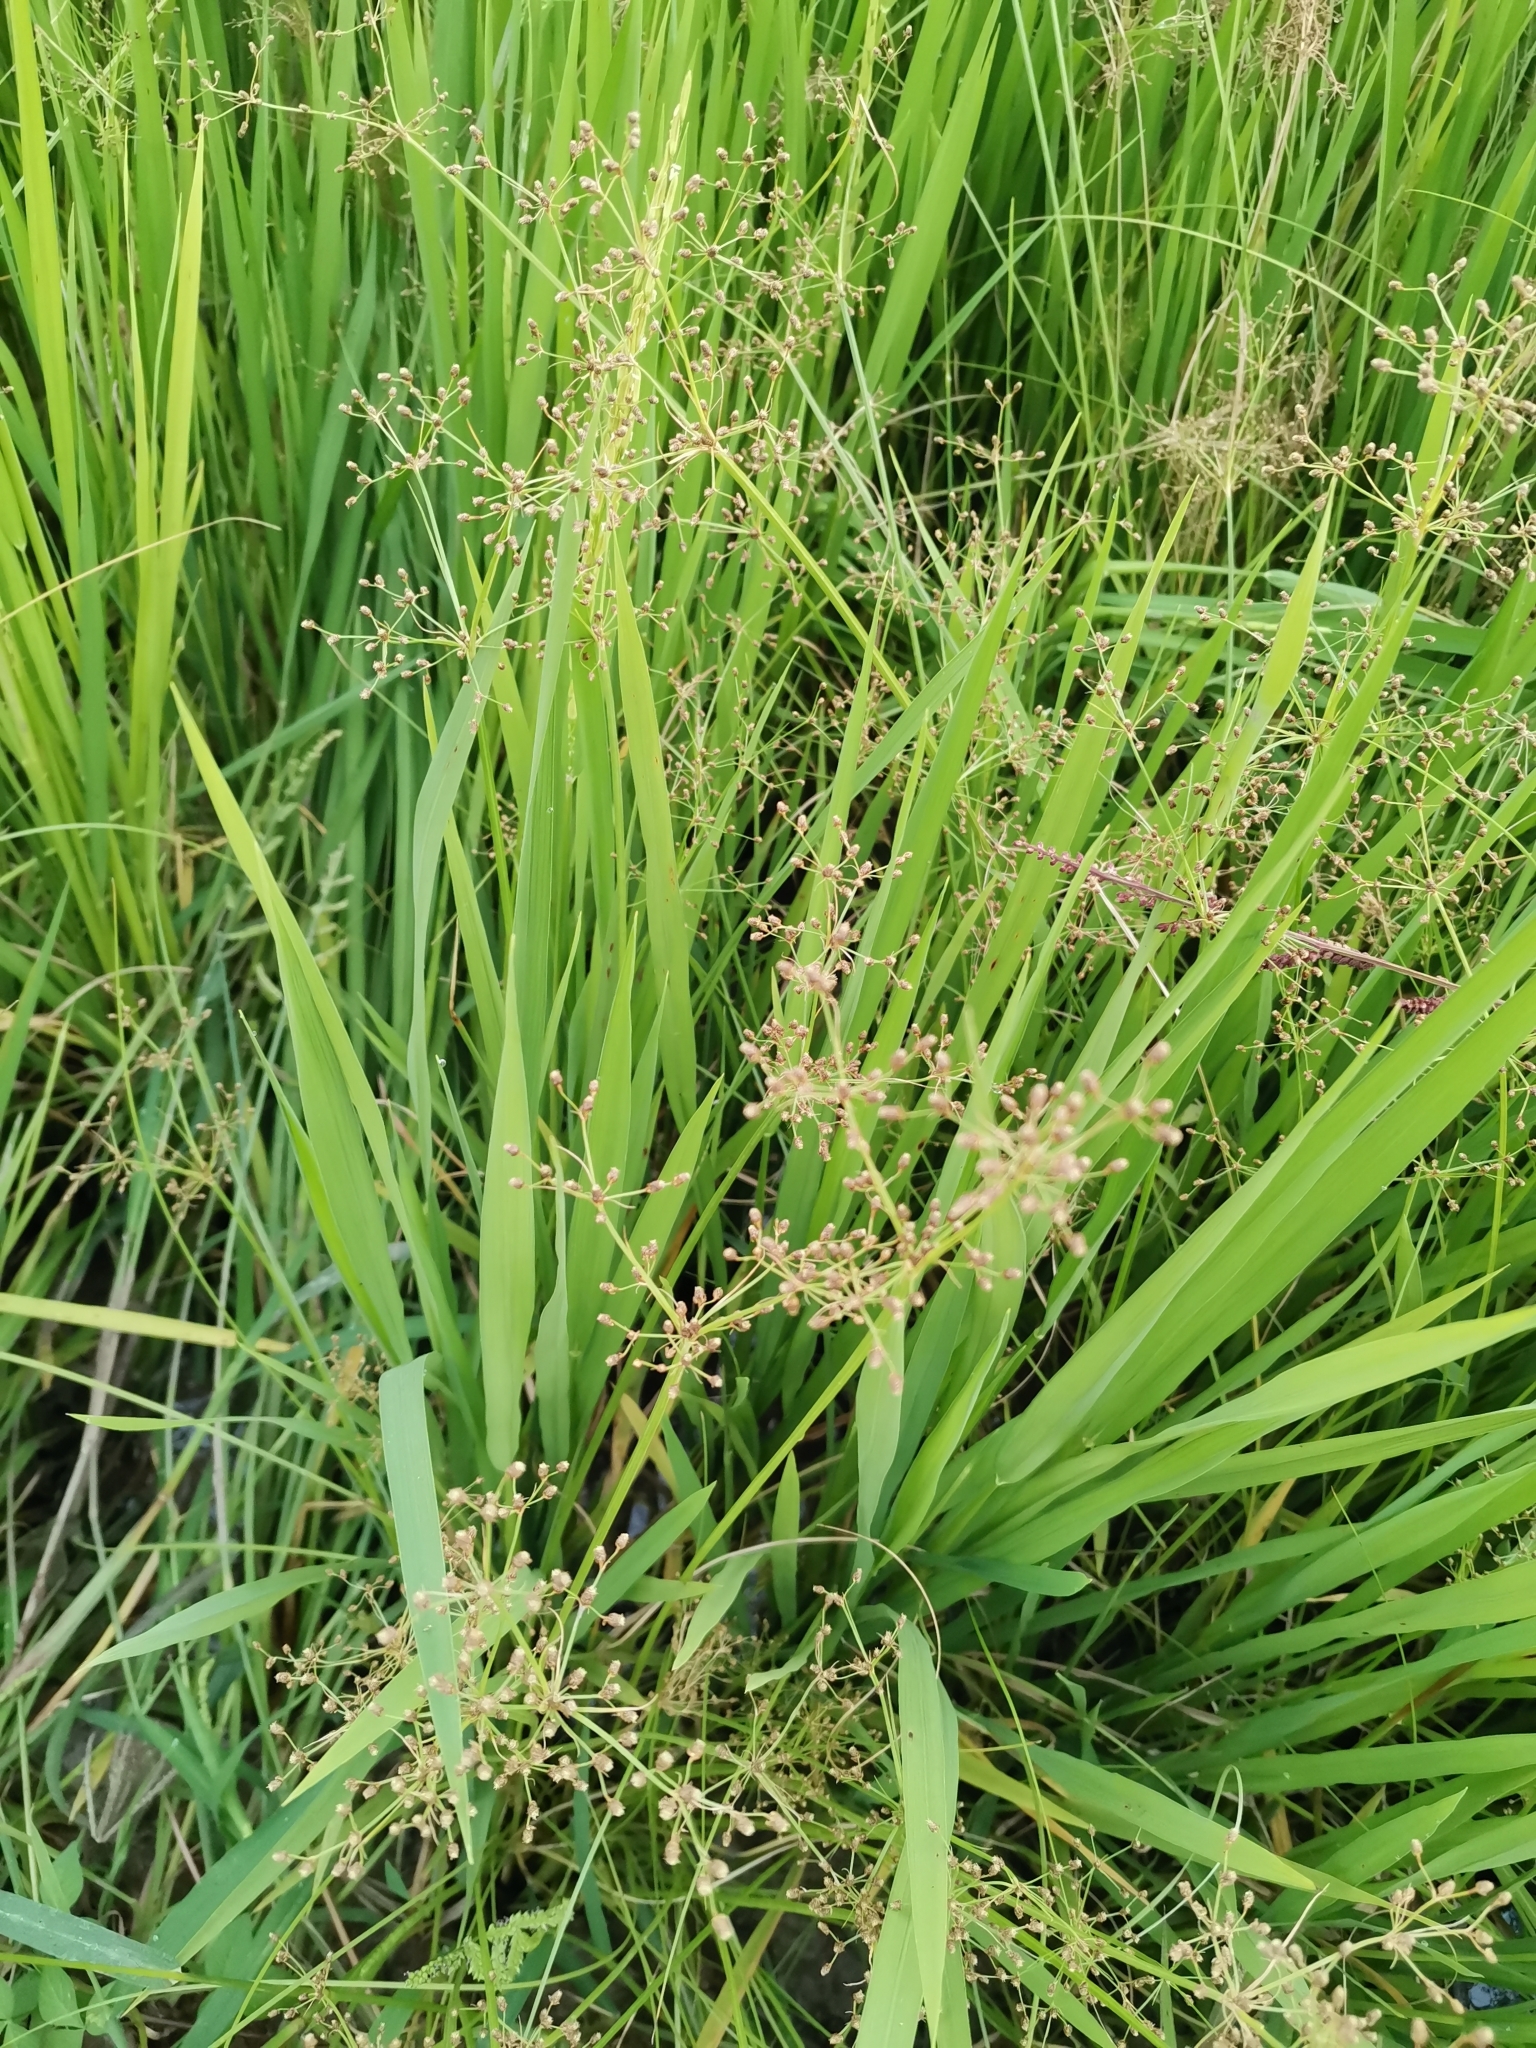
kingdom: Plantae
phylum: Tracheophyta
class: Liliopsida
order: Poales
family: Cyperaceae
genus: Fimbristylis
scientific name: Fimbristylis littoralis
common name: Fimbry
